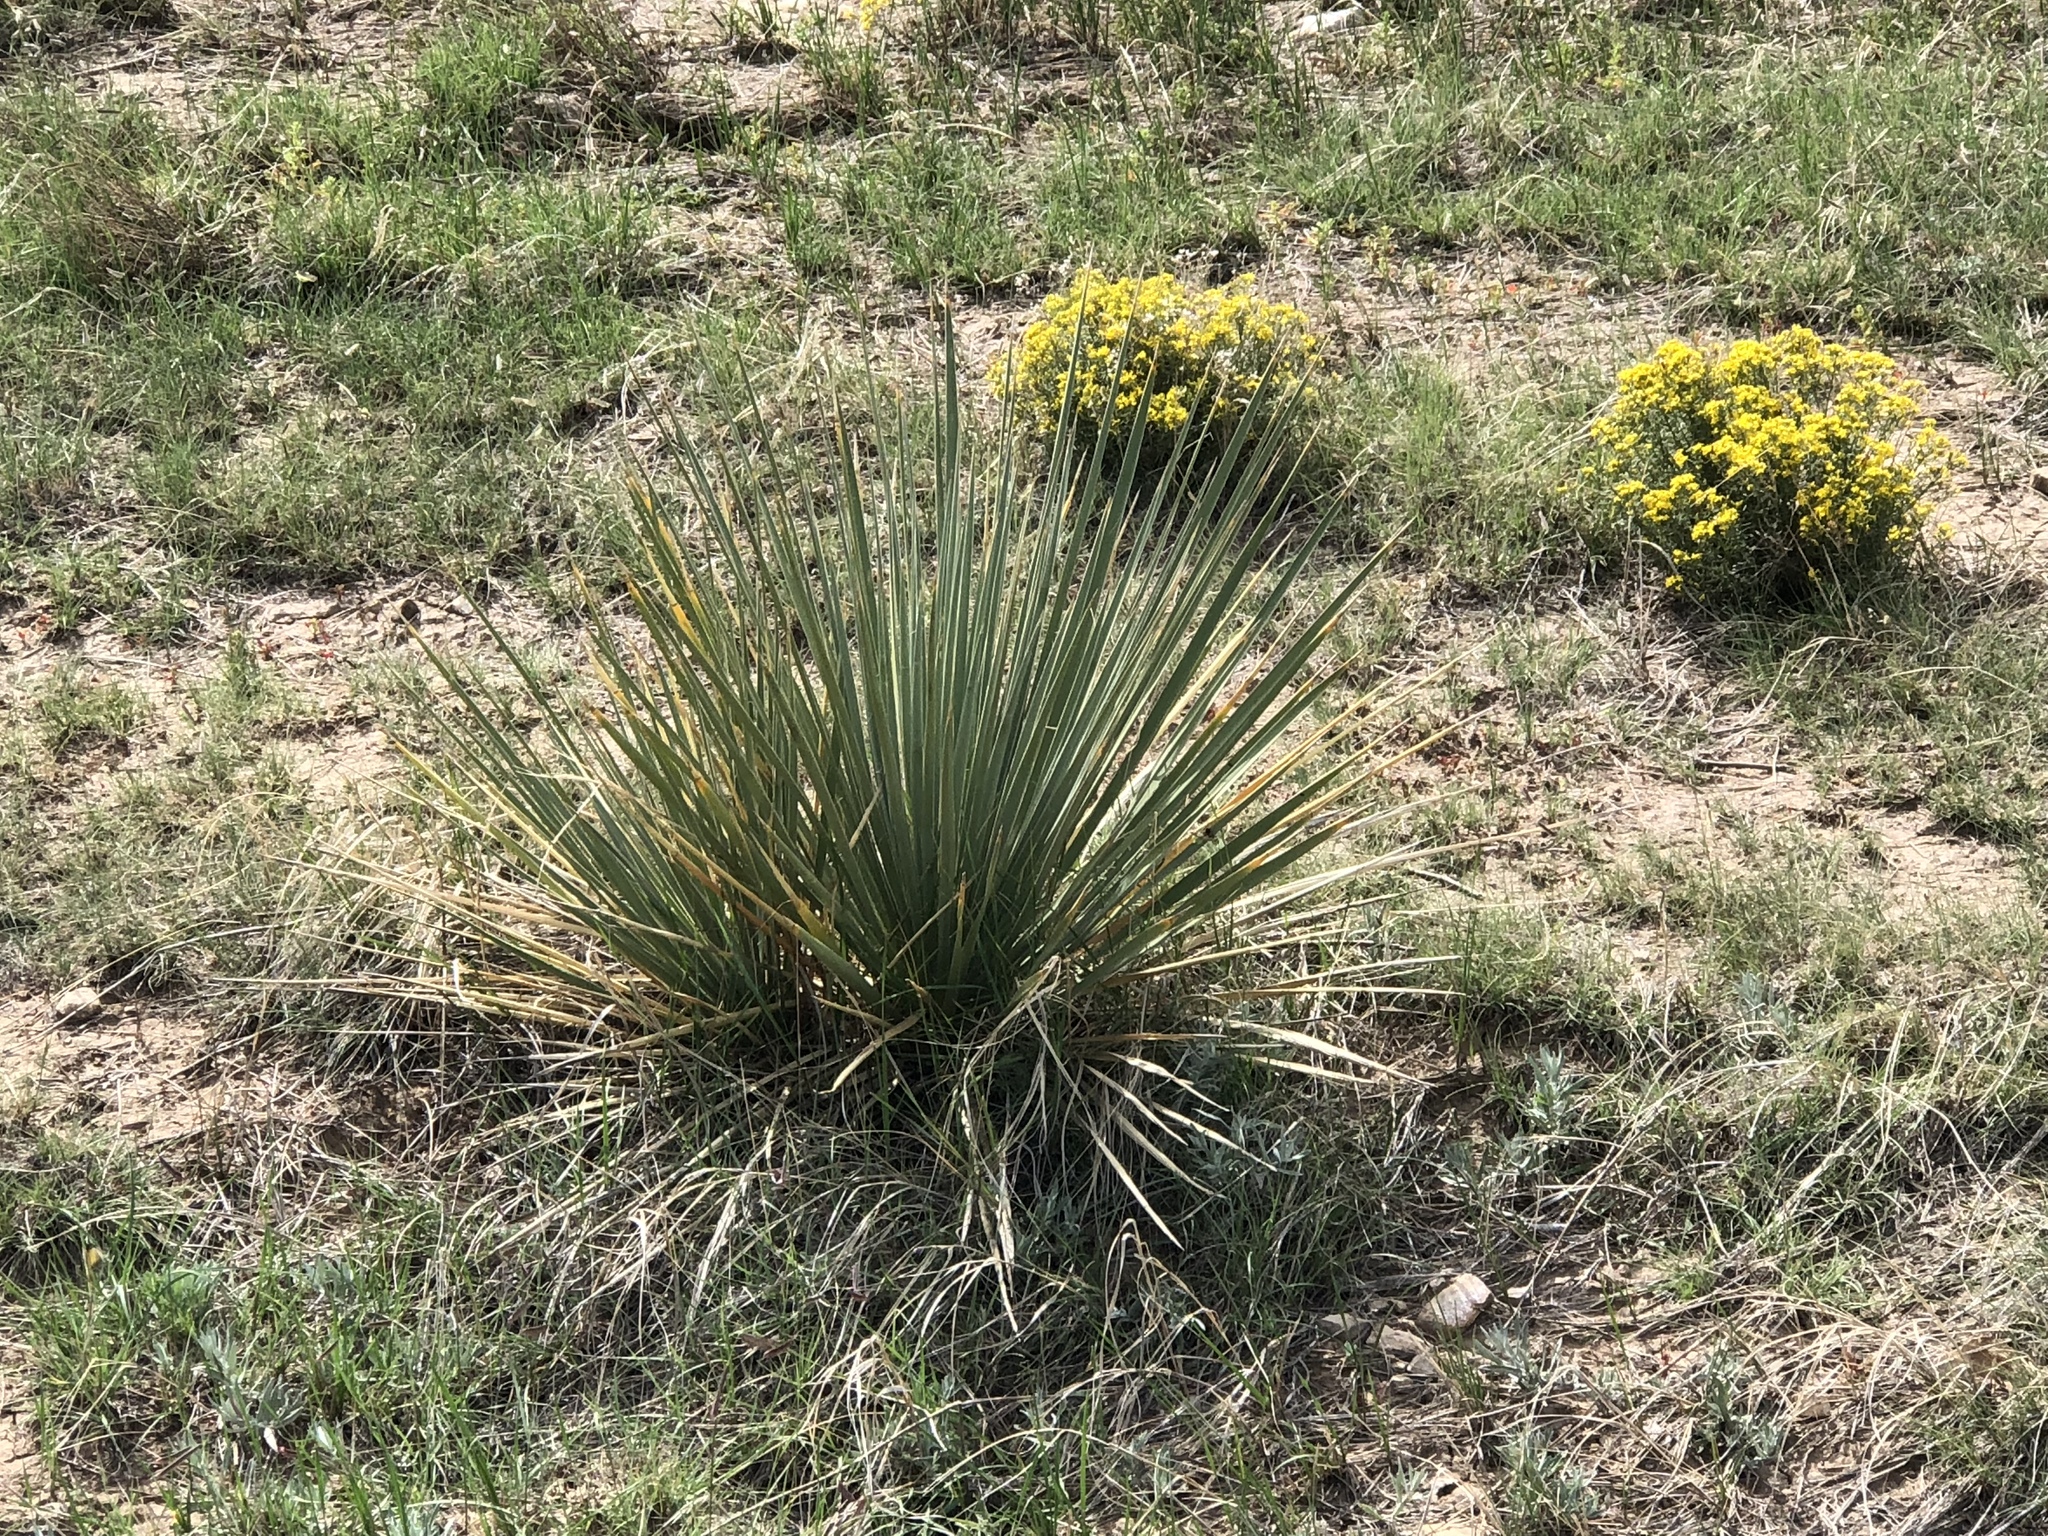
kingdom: Plantae
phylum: Tracheophyta
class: Liliopsida
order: Asparagales
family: Asparagaceae
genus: Yucca
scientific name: Yucca glauca
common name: Great plains yucca
